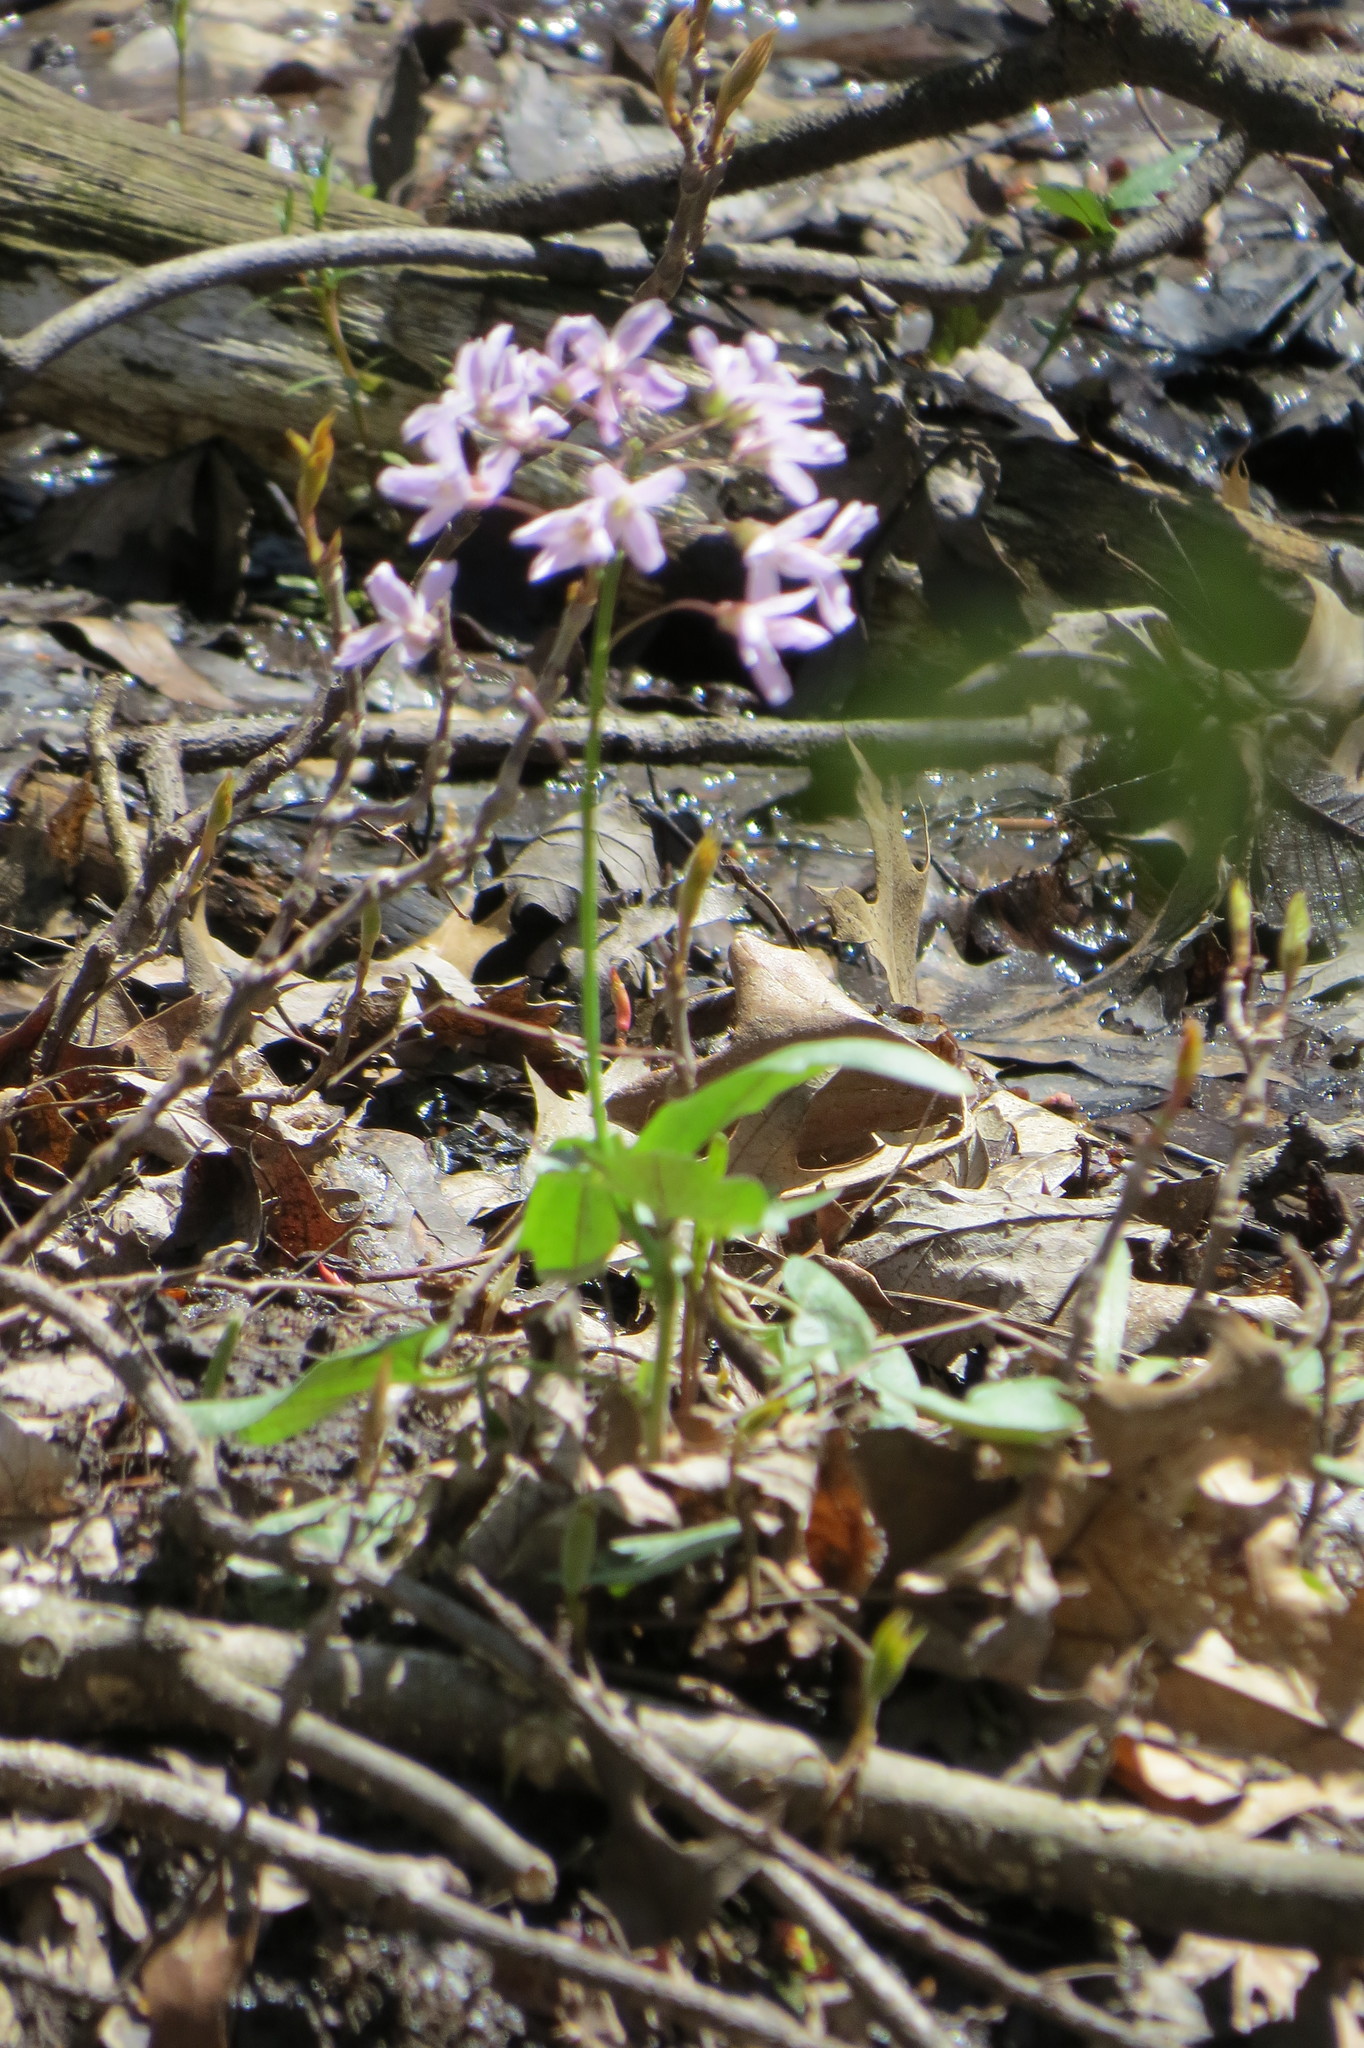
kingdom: Plantae
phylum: Tracheophyta
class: Magnoliopsida
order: Brassicales
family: Brassicaceae
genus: Cardamine
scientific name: Cardamine douglassii
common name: Purple cress
